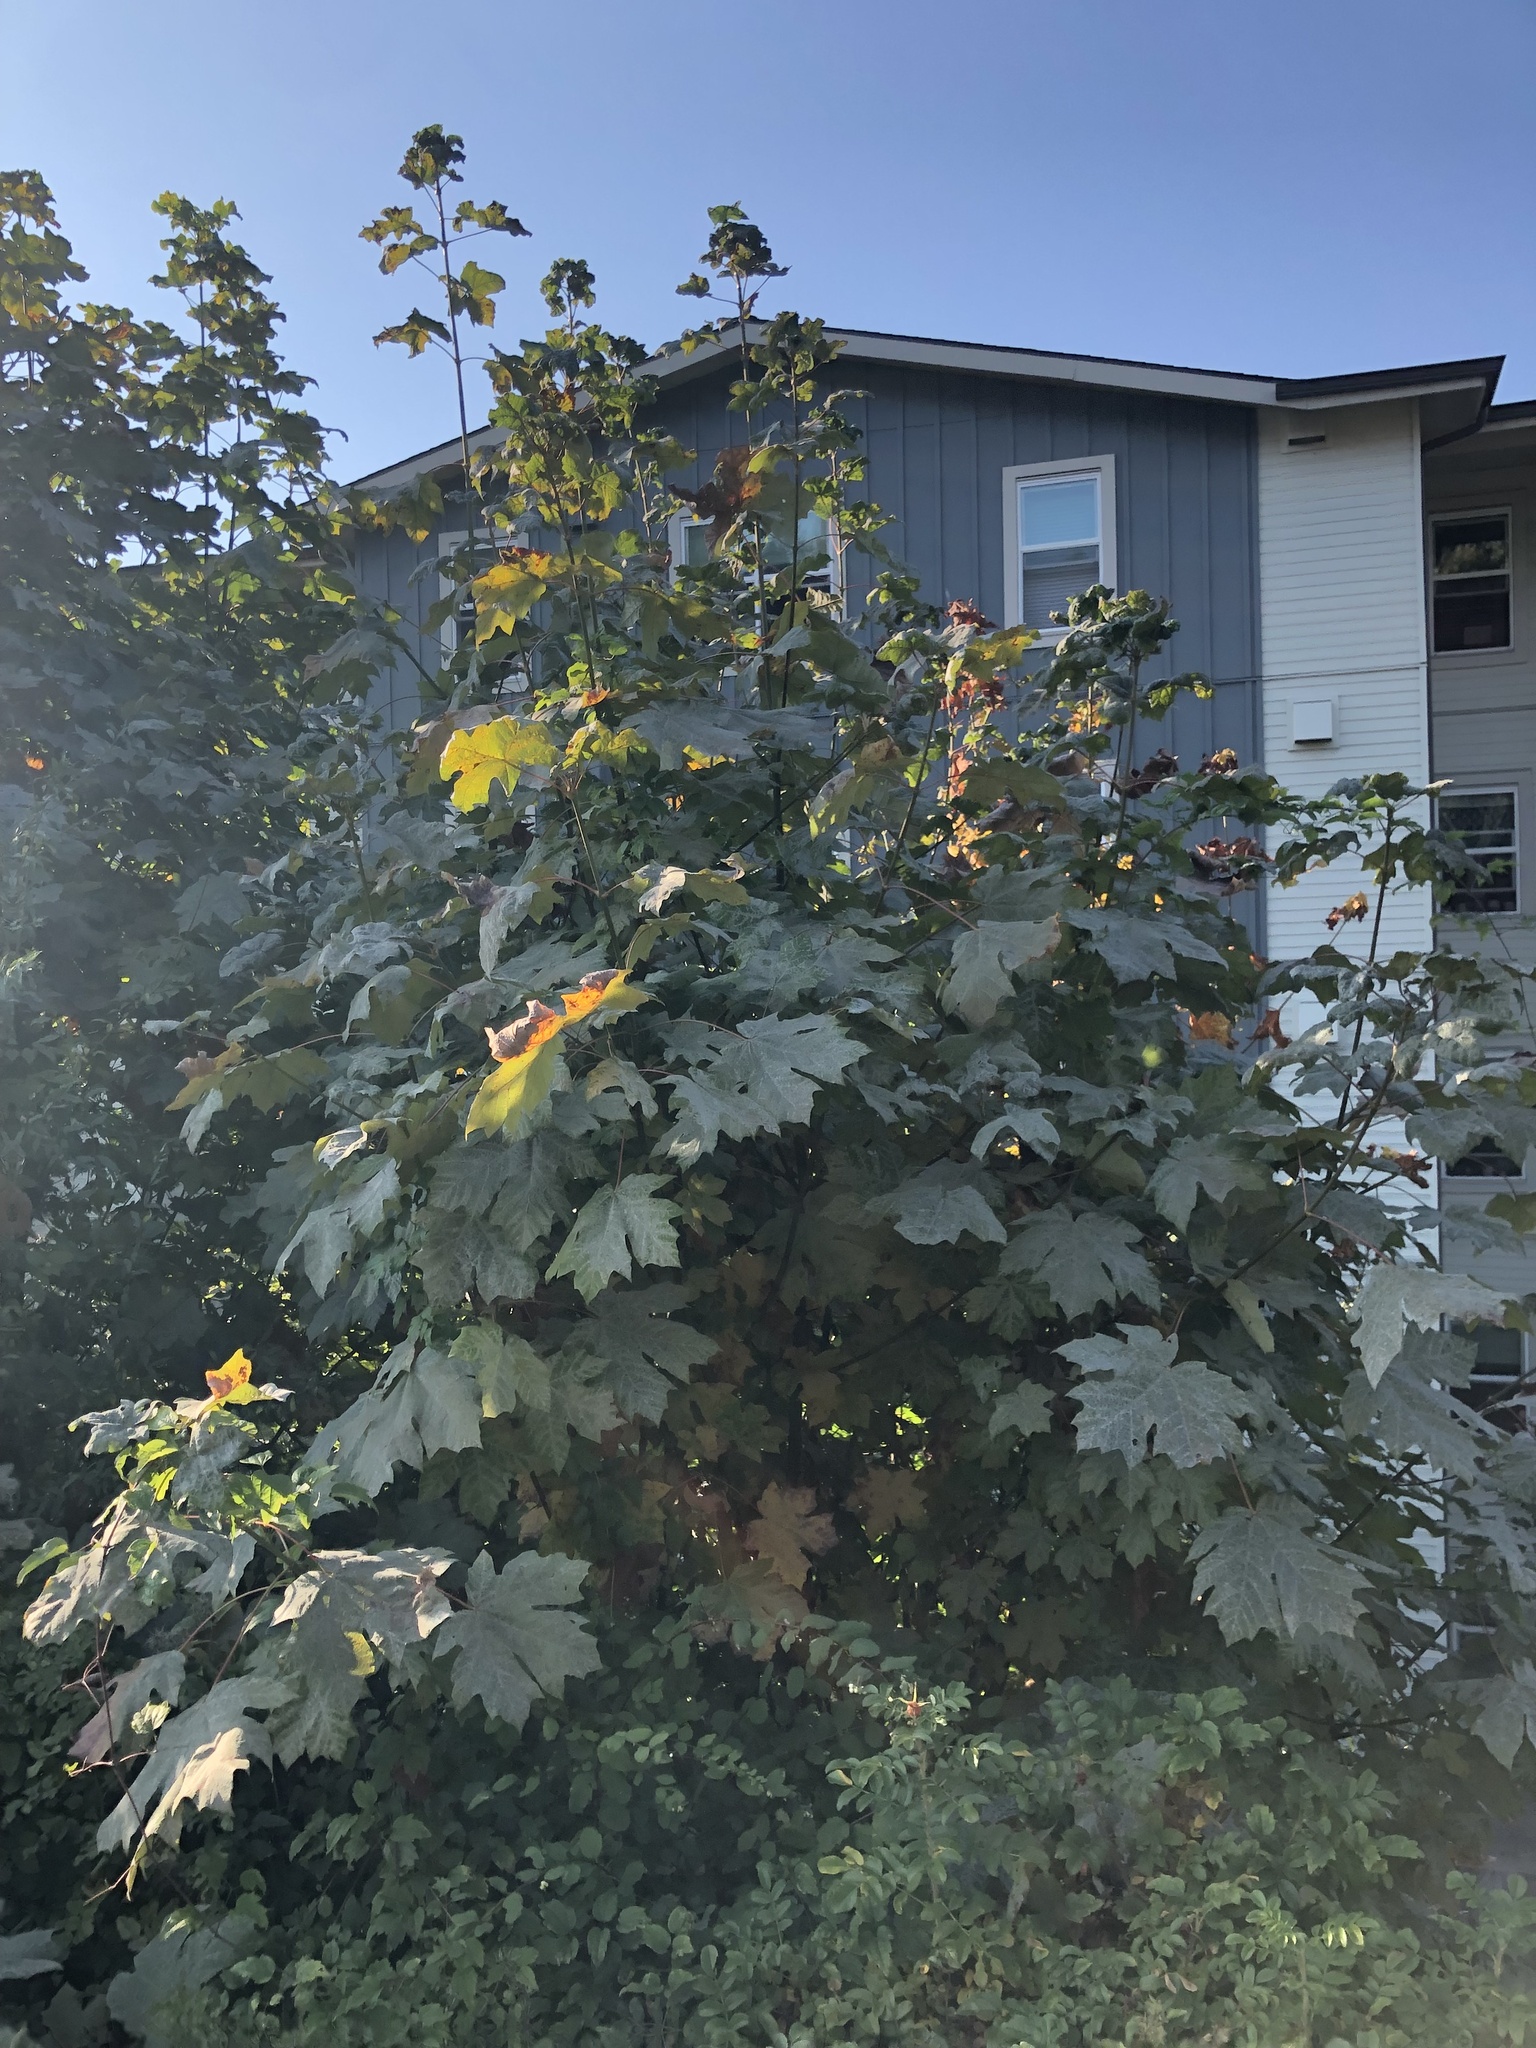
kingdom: Plantae
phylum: Tracheophyta
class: Magnoliopsida
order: Sapindales
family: Sapindaceae
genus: Acer
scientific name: Acer macrophyllum
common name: Oregon maple
